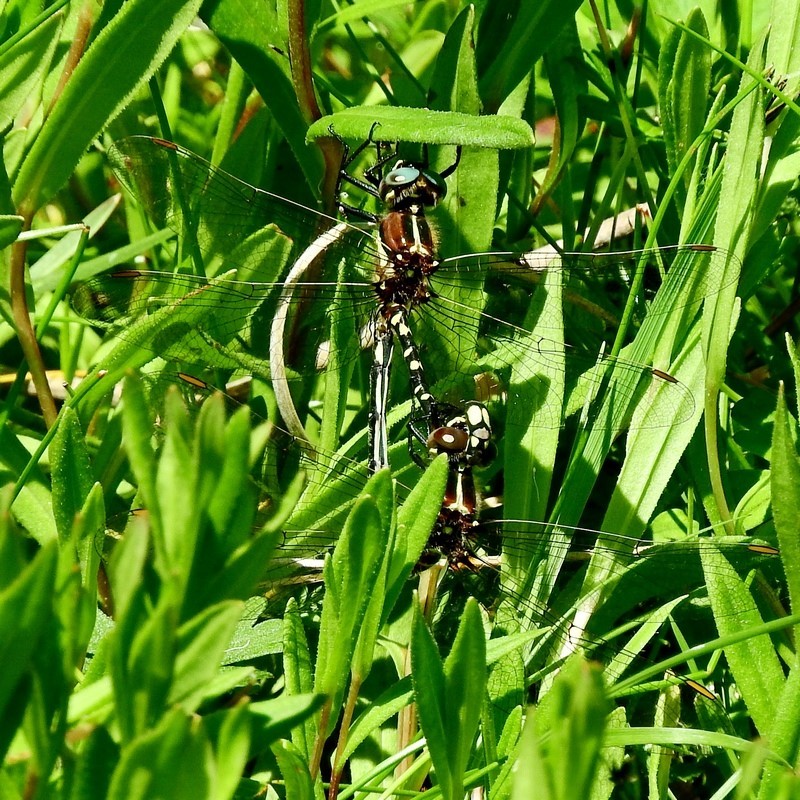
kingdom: Animalia
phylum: Arthropoda
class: Insecta
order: Odonata
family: Synthemistidae
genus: Synthemis
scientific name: Synthemis eustalacta
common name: Swamp tigertail
